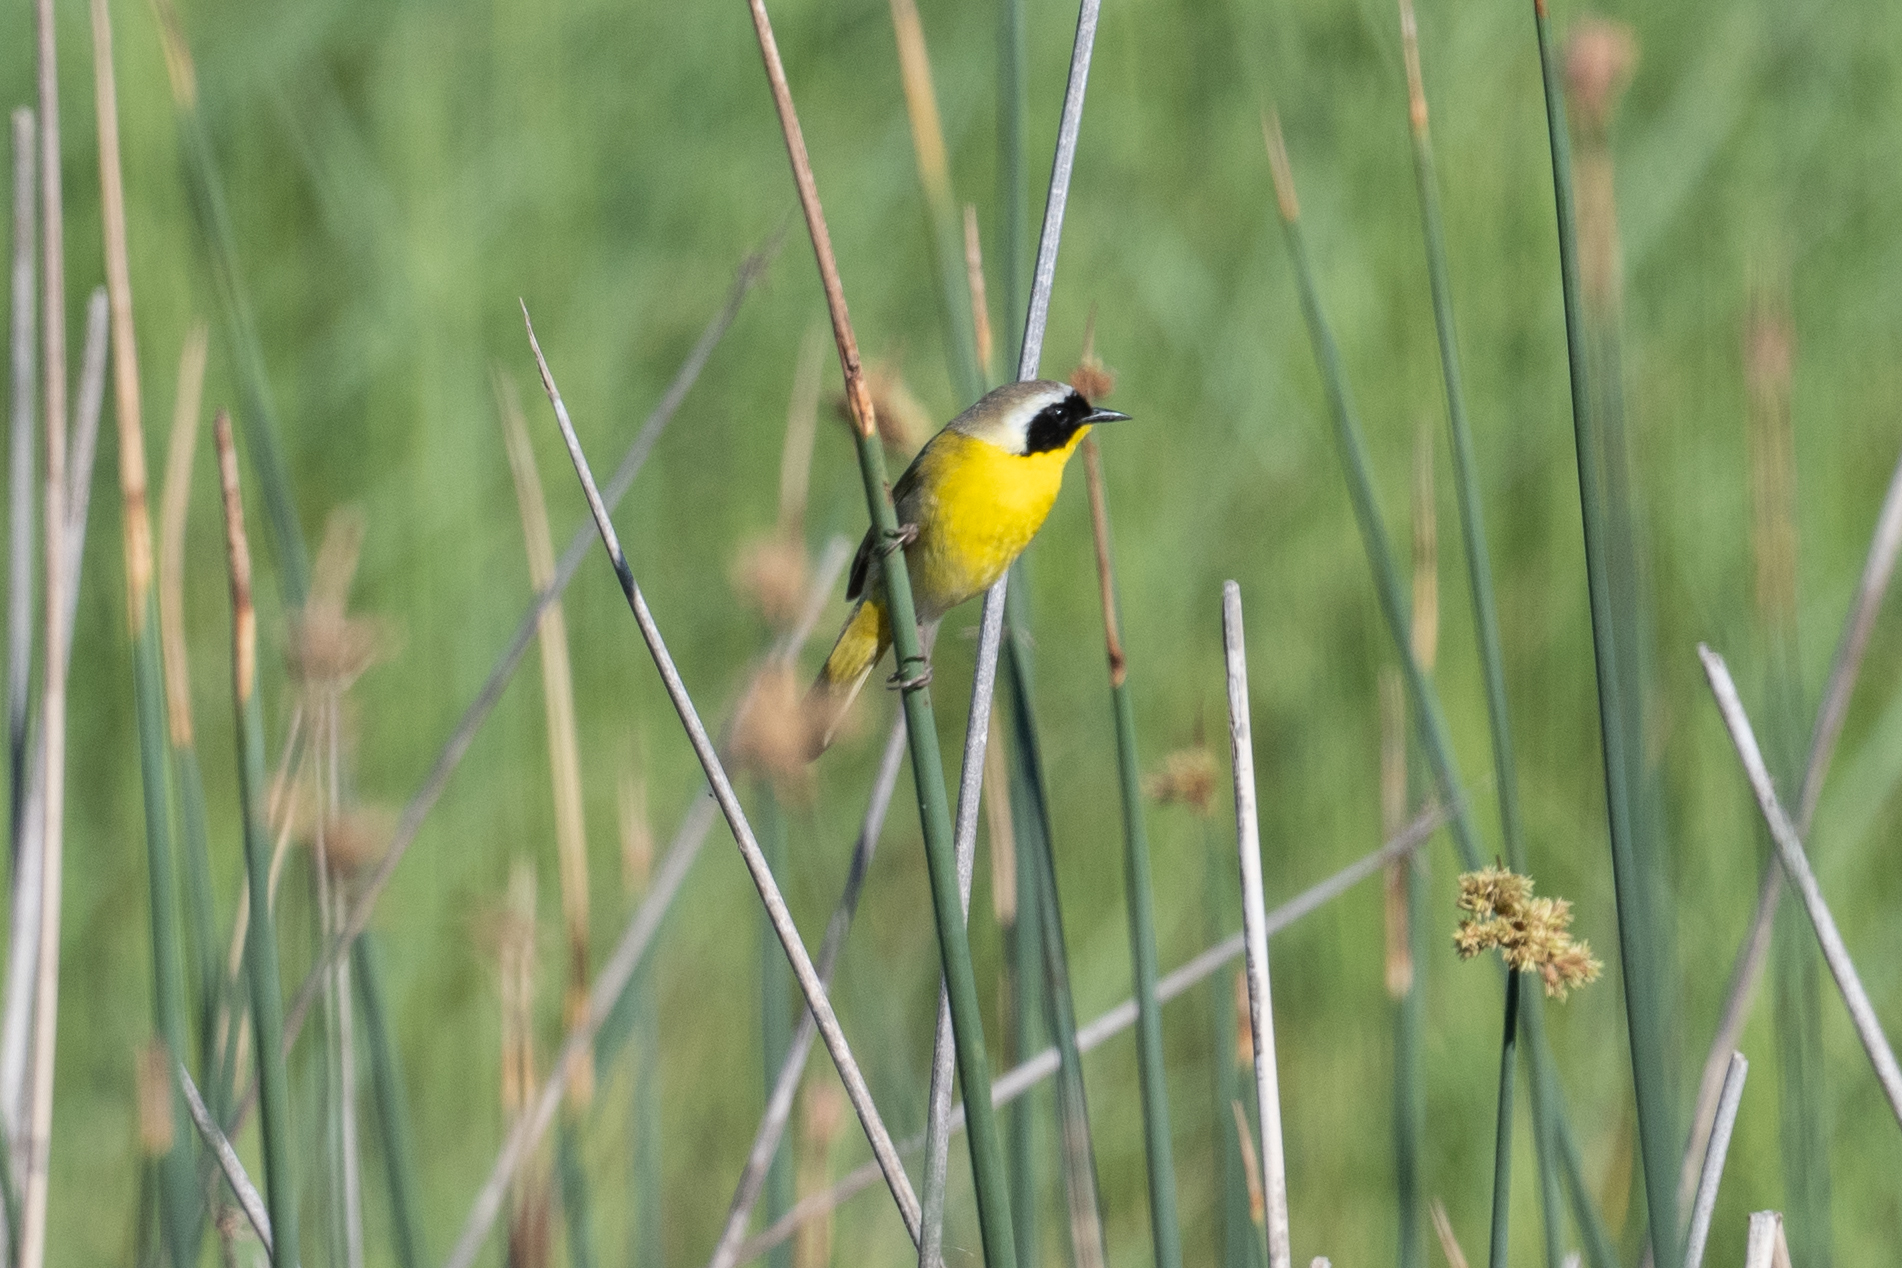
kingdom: Animalia
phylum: Chordata
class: Aves
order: Passeriformes
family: Parulidae
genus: Geothlypis
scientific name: Geothlypis trichas
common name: Common yellowthroat
